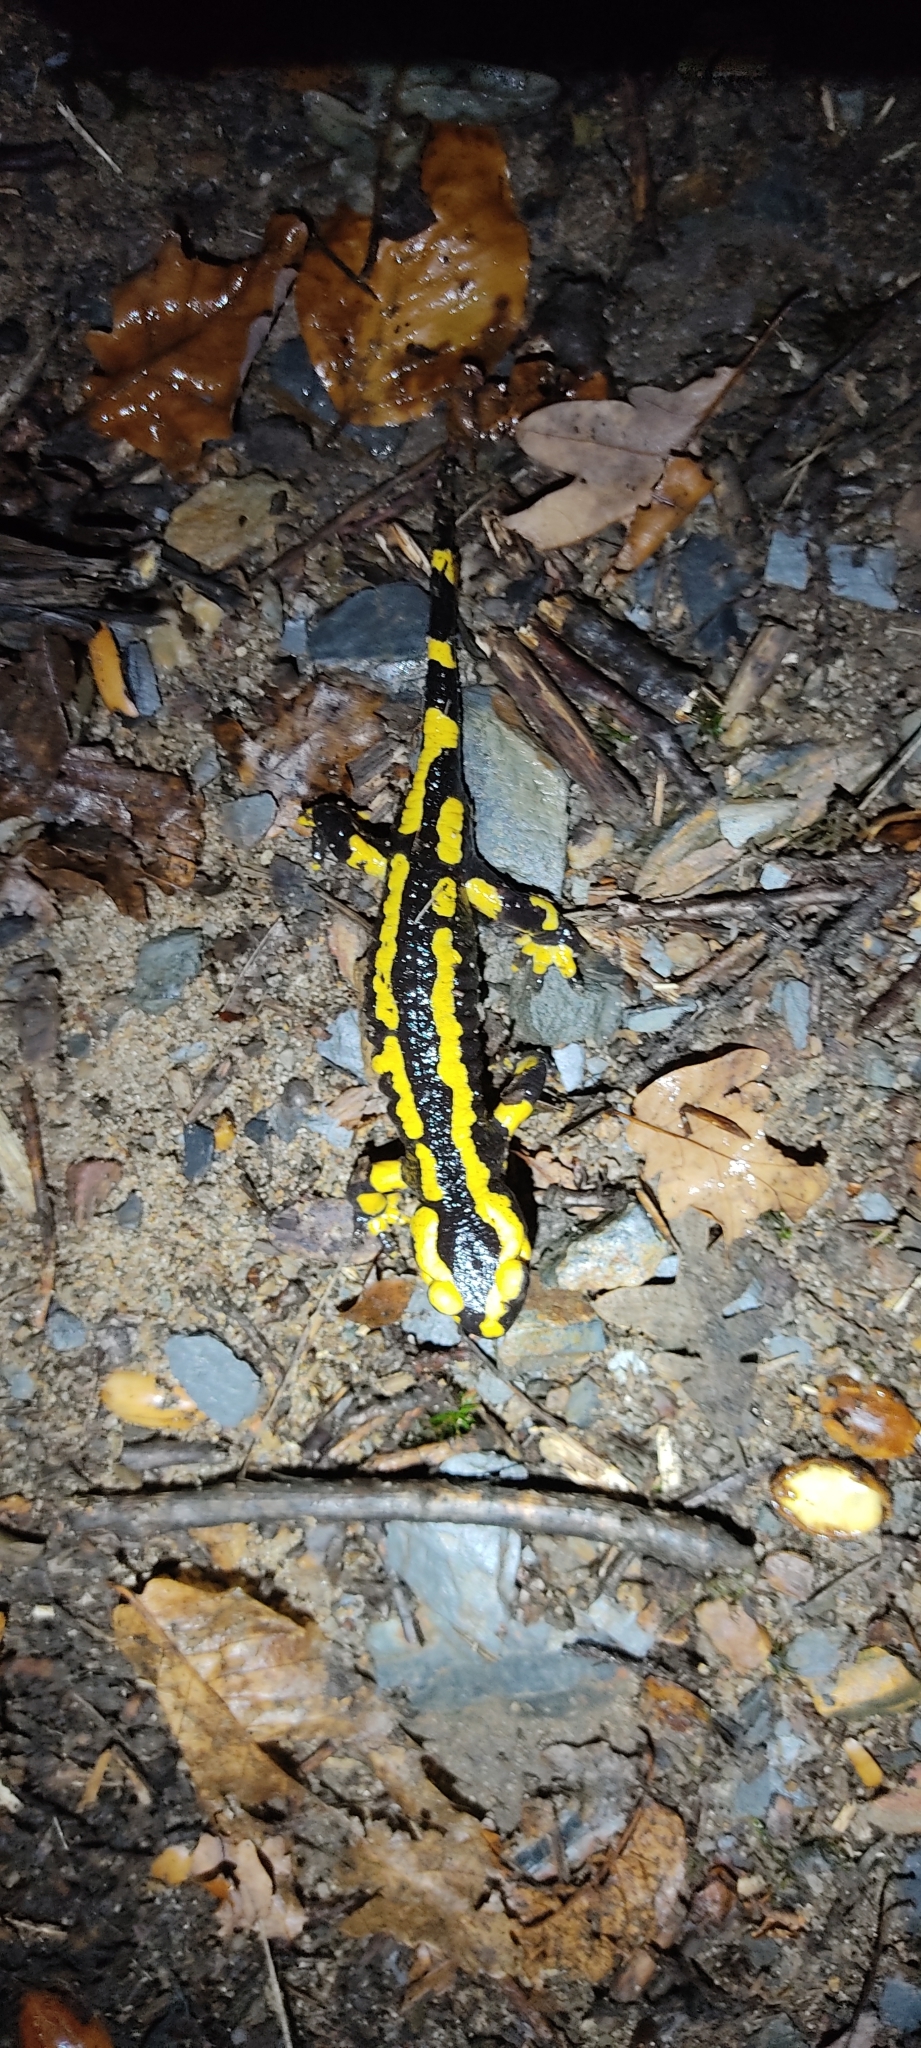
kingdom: Animalia
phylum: Chordata
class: Amphibia
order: Caudata
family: Salamandridae
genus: Salamandra
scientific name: Salamandra salamandra
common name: Fire salamander
